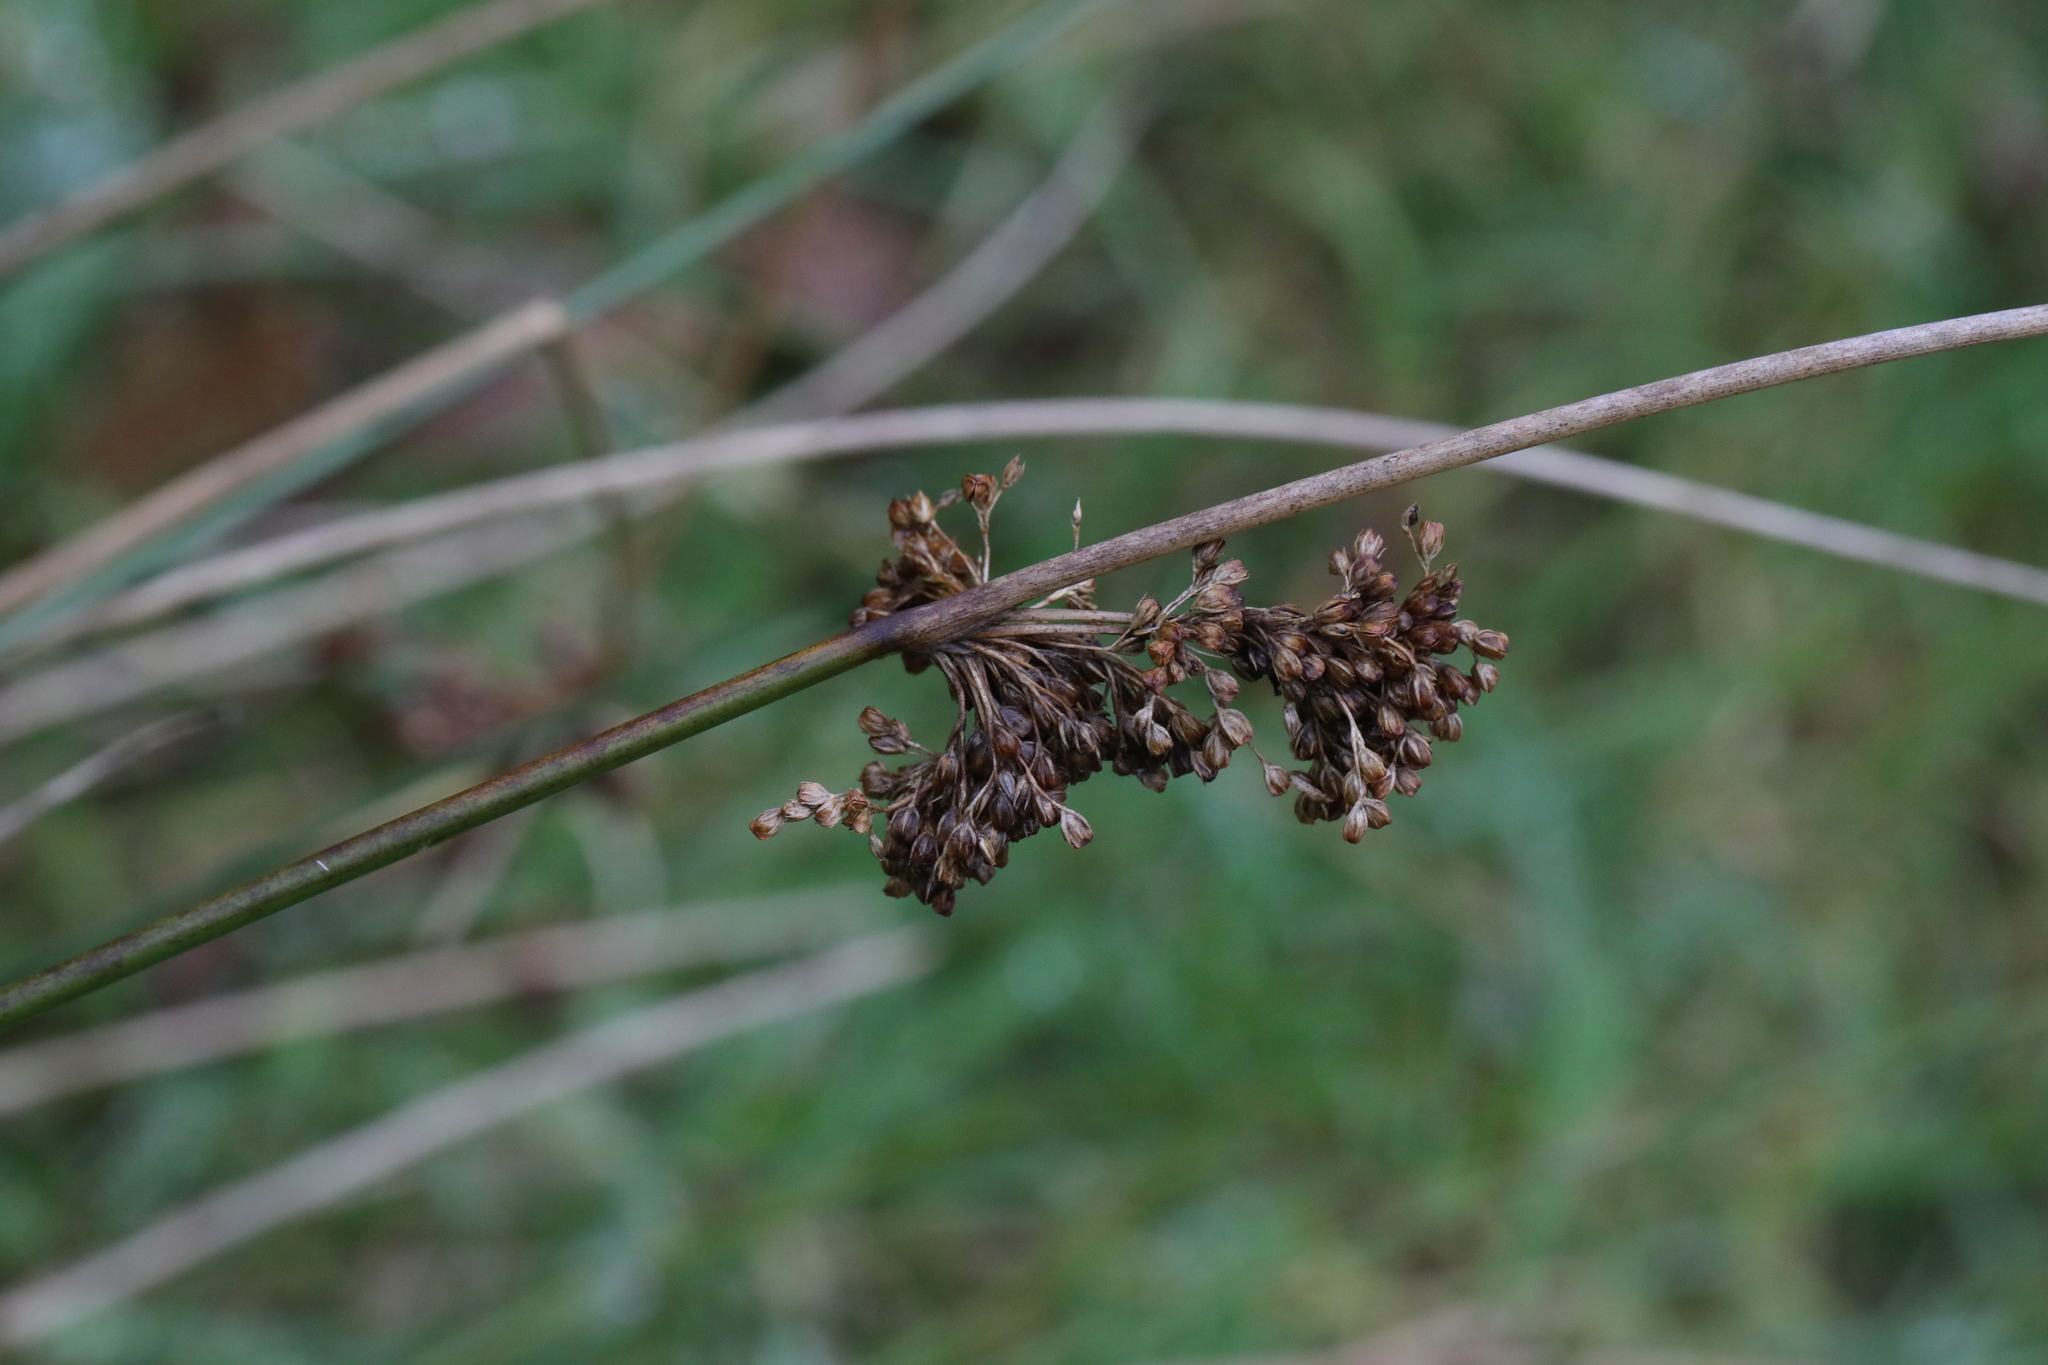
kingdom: Plantae
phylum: Tracheophyta
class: Liliopsida
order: Poales
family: Juncaceae
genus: Juncus
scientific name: Juncus effusus
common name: Soft rush
